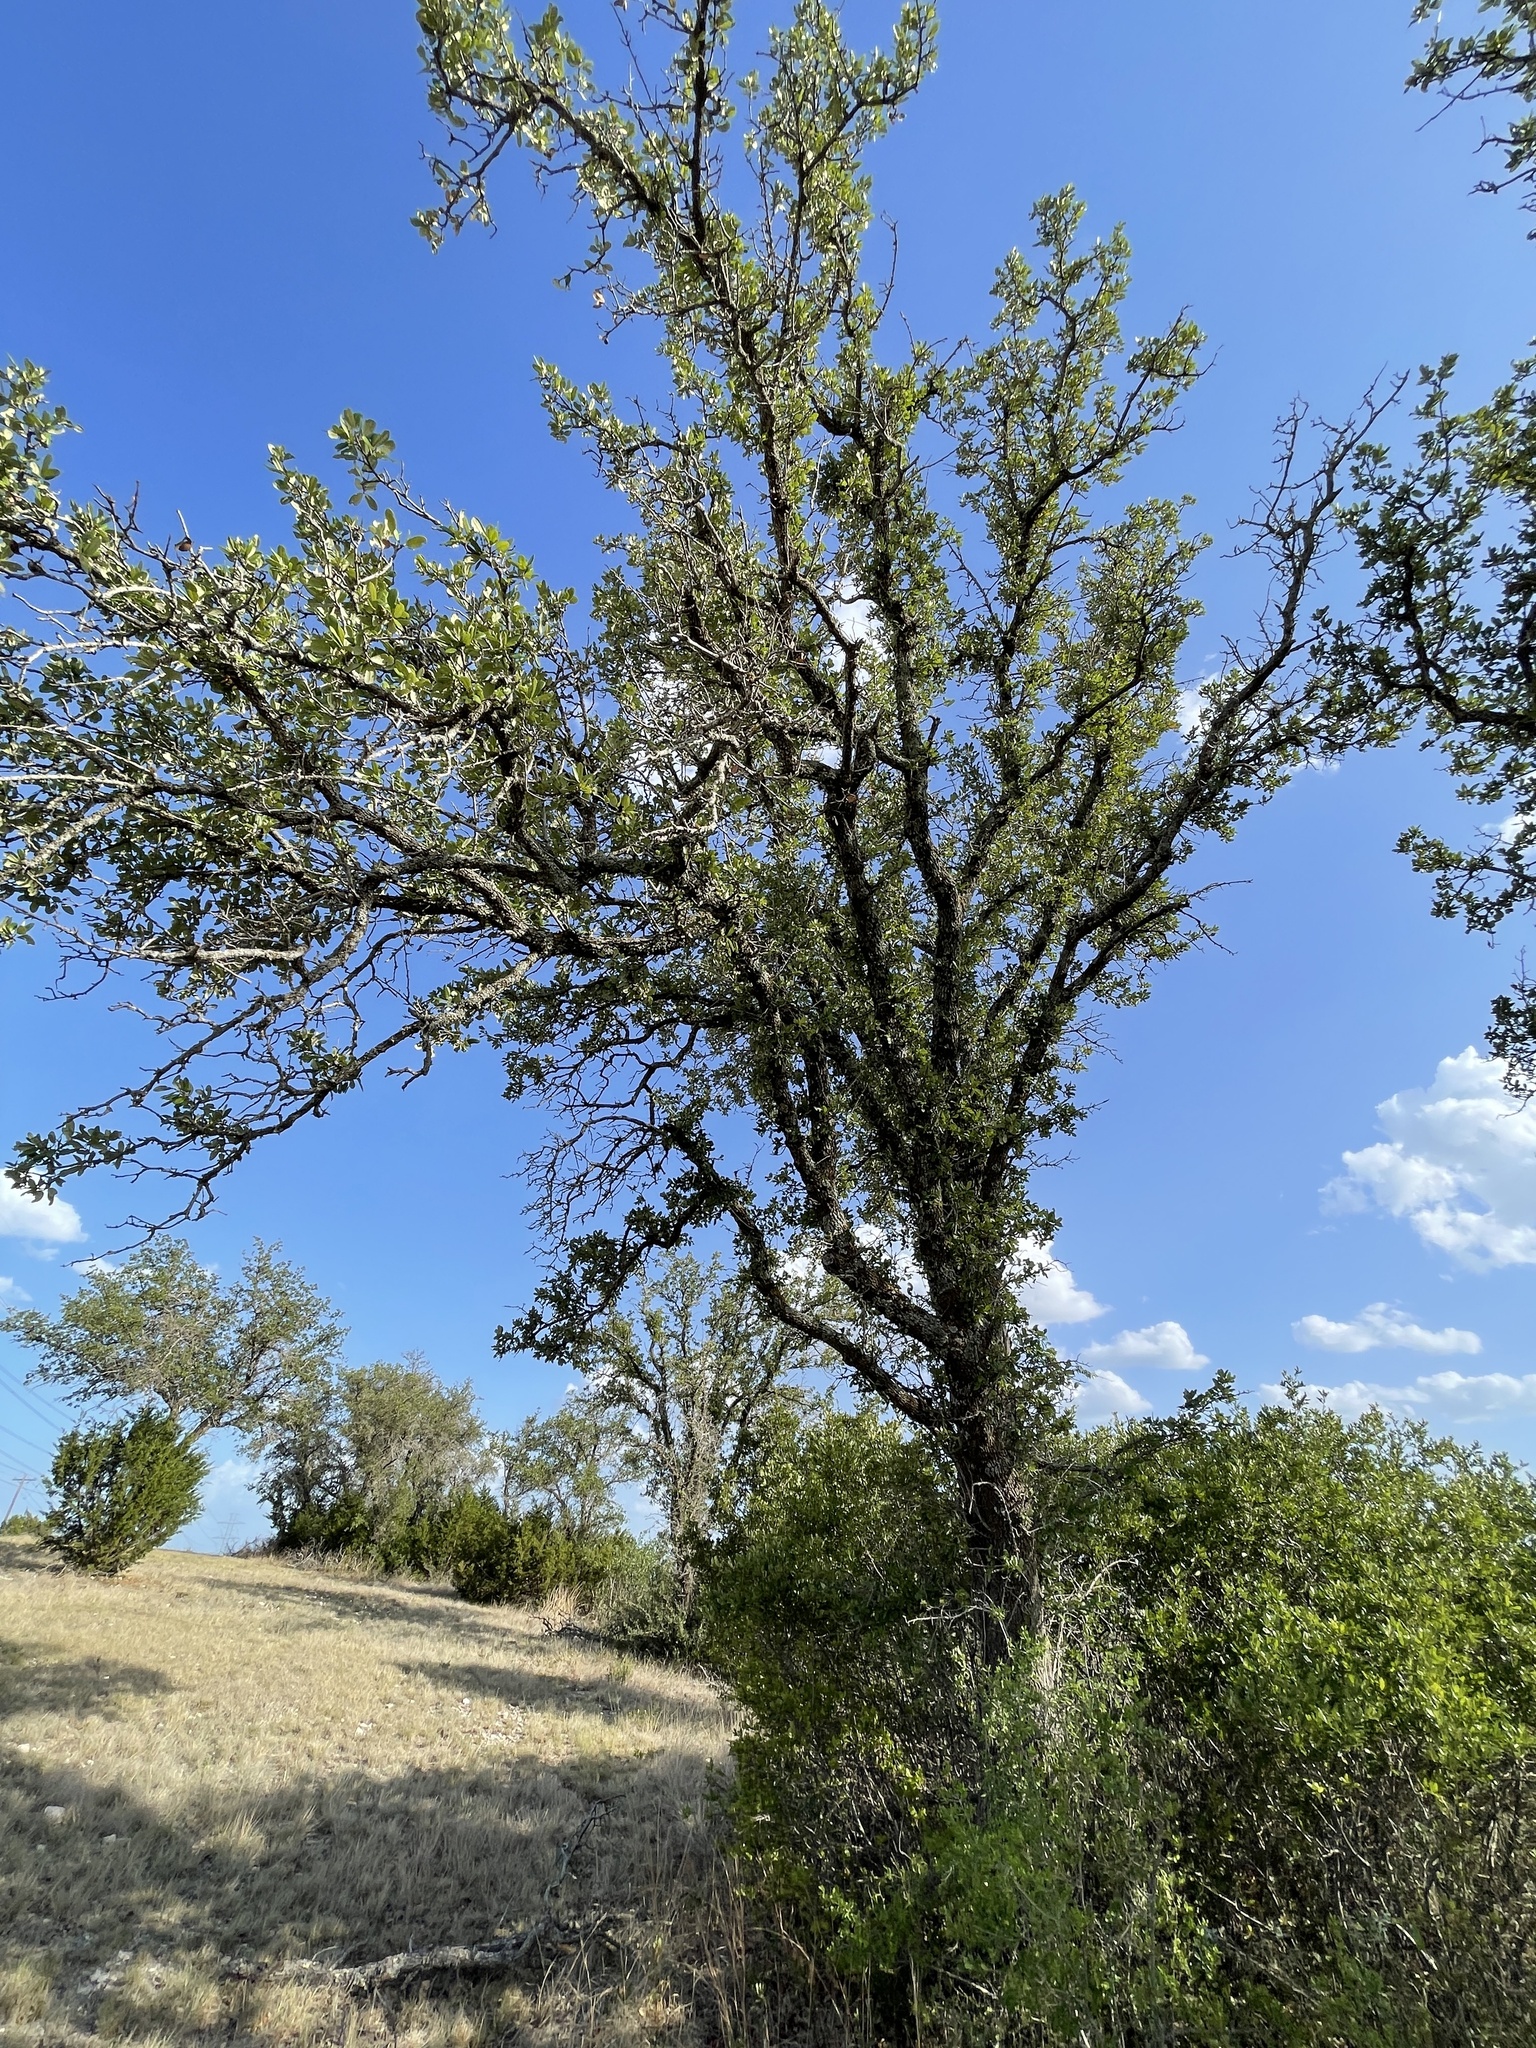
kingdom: Plantae
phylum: Tracheophyta
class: Magnoliopsida
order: Fagales
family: Fagaceae
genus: Quercus
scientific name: Quercus fusiformis
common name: Texas live oak
